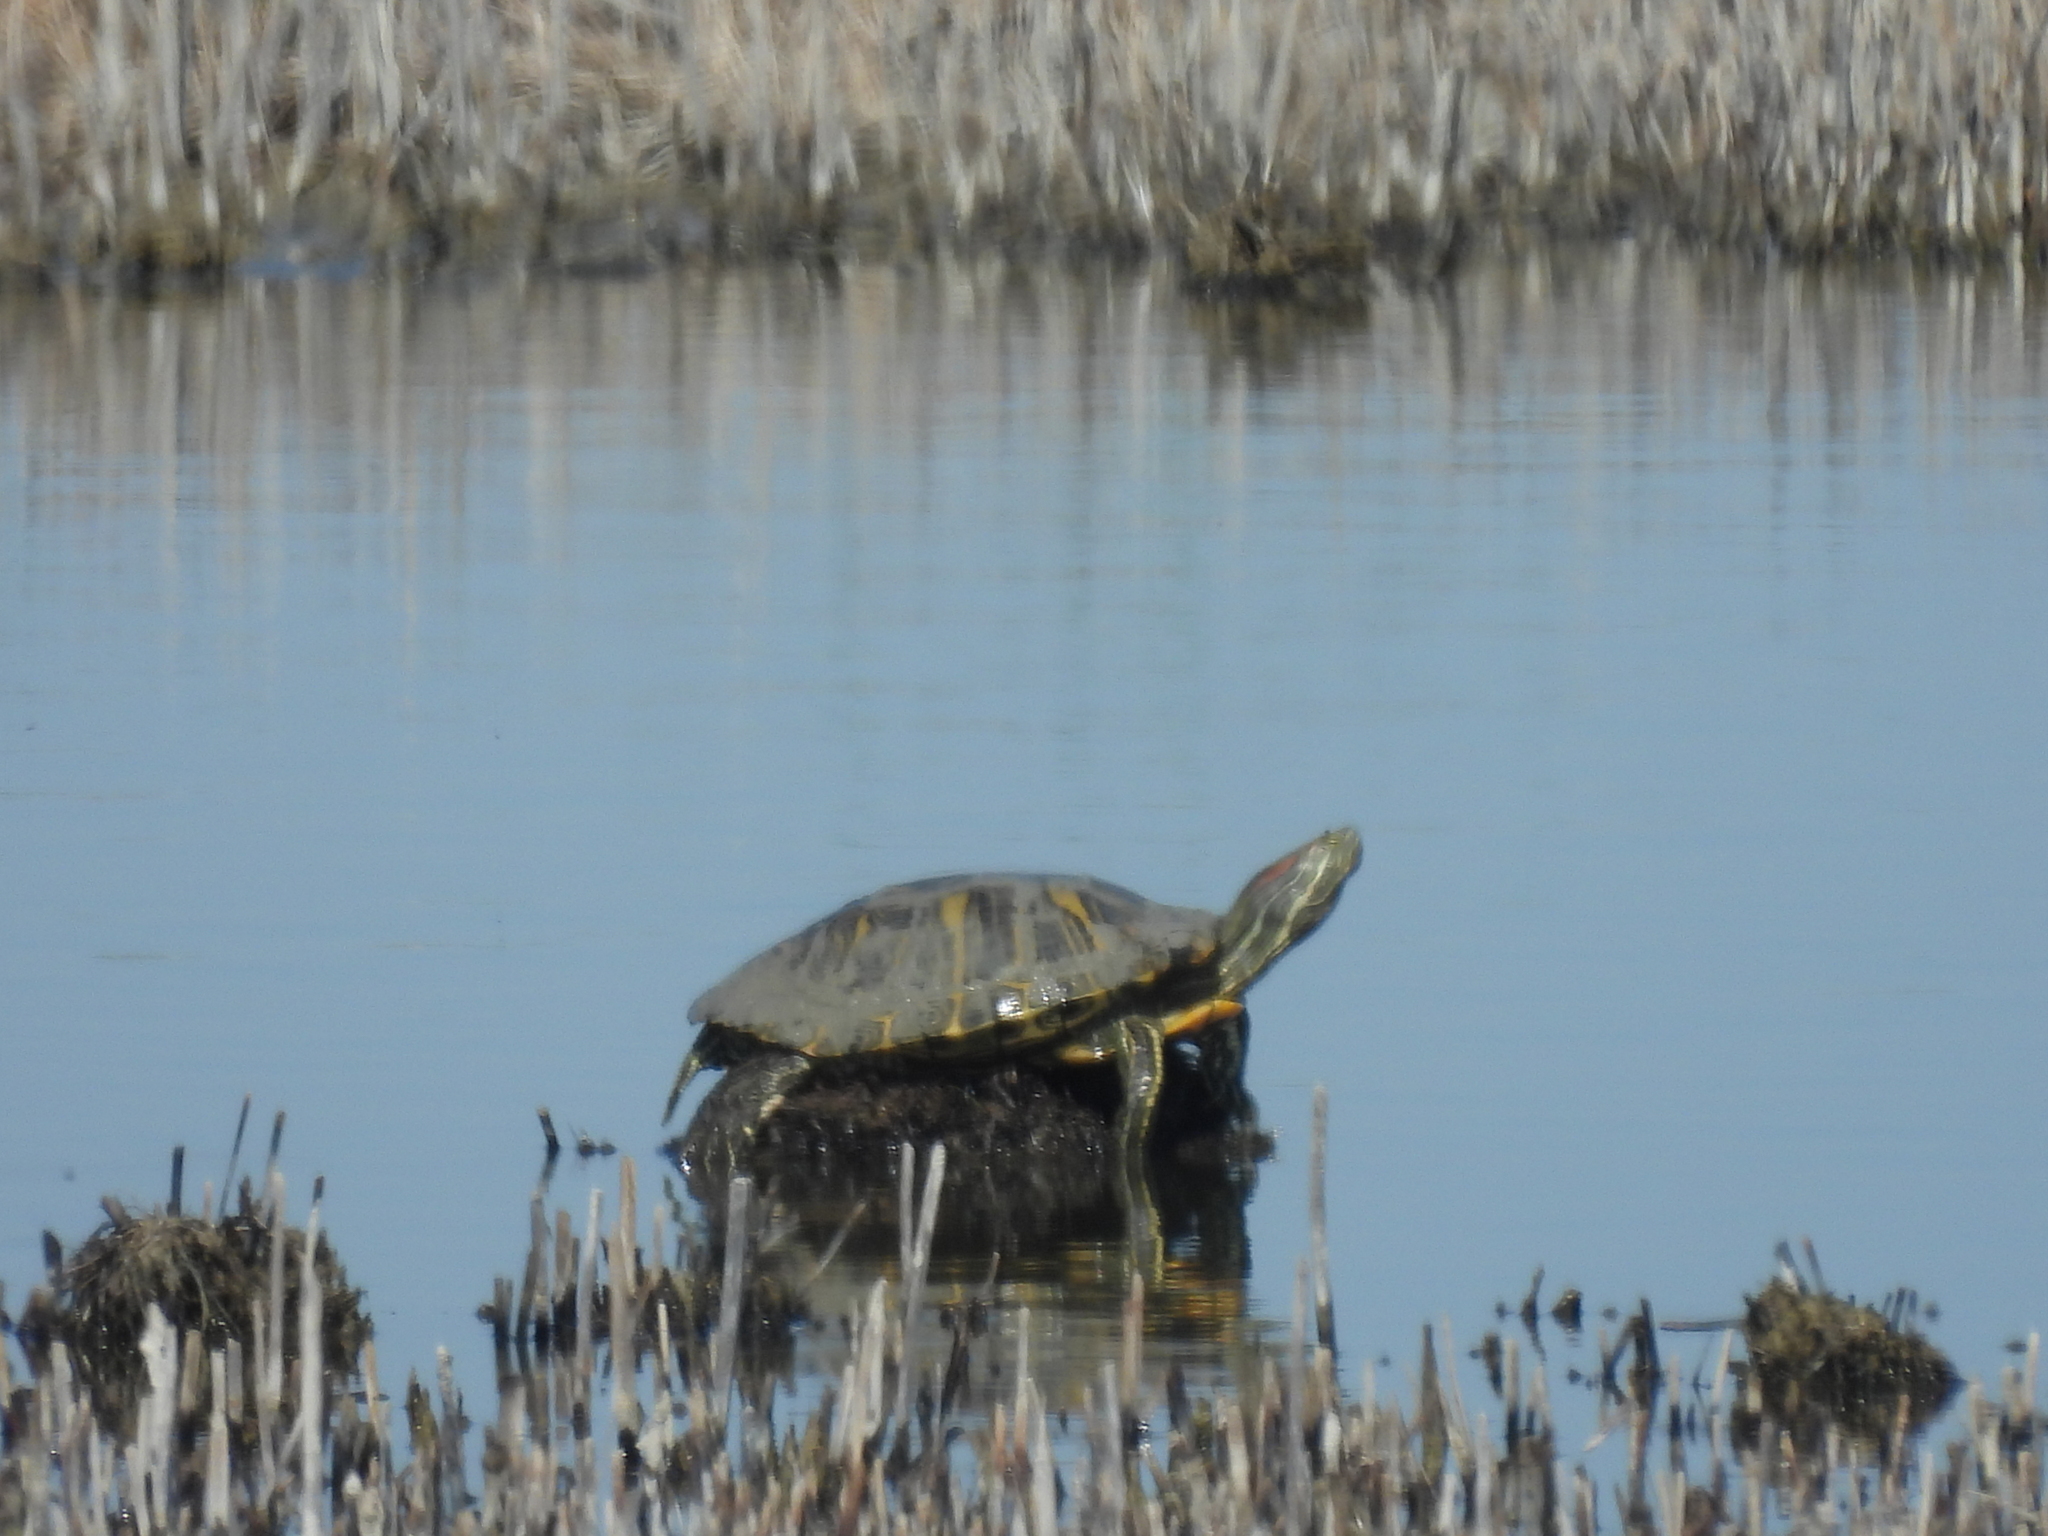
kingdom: Animalia
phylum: Chordata
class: Testudines
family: Emydidae
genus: Trachemys
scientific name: Trachemys scripta
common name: Slider
